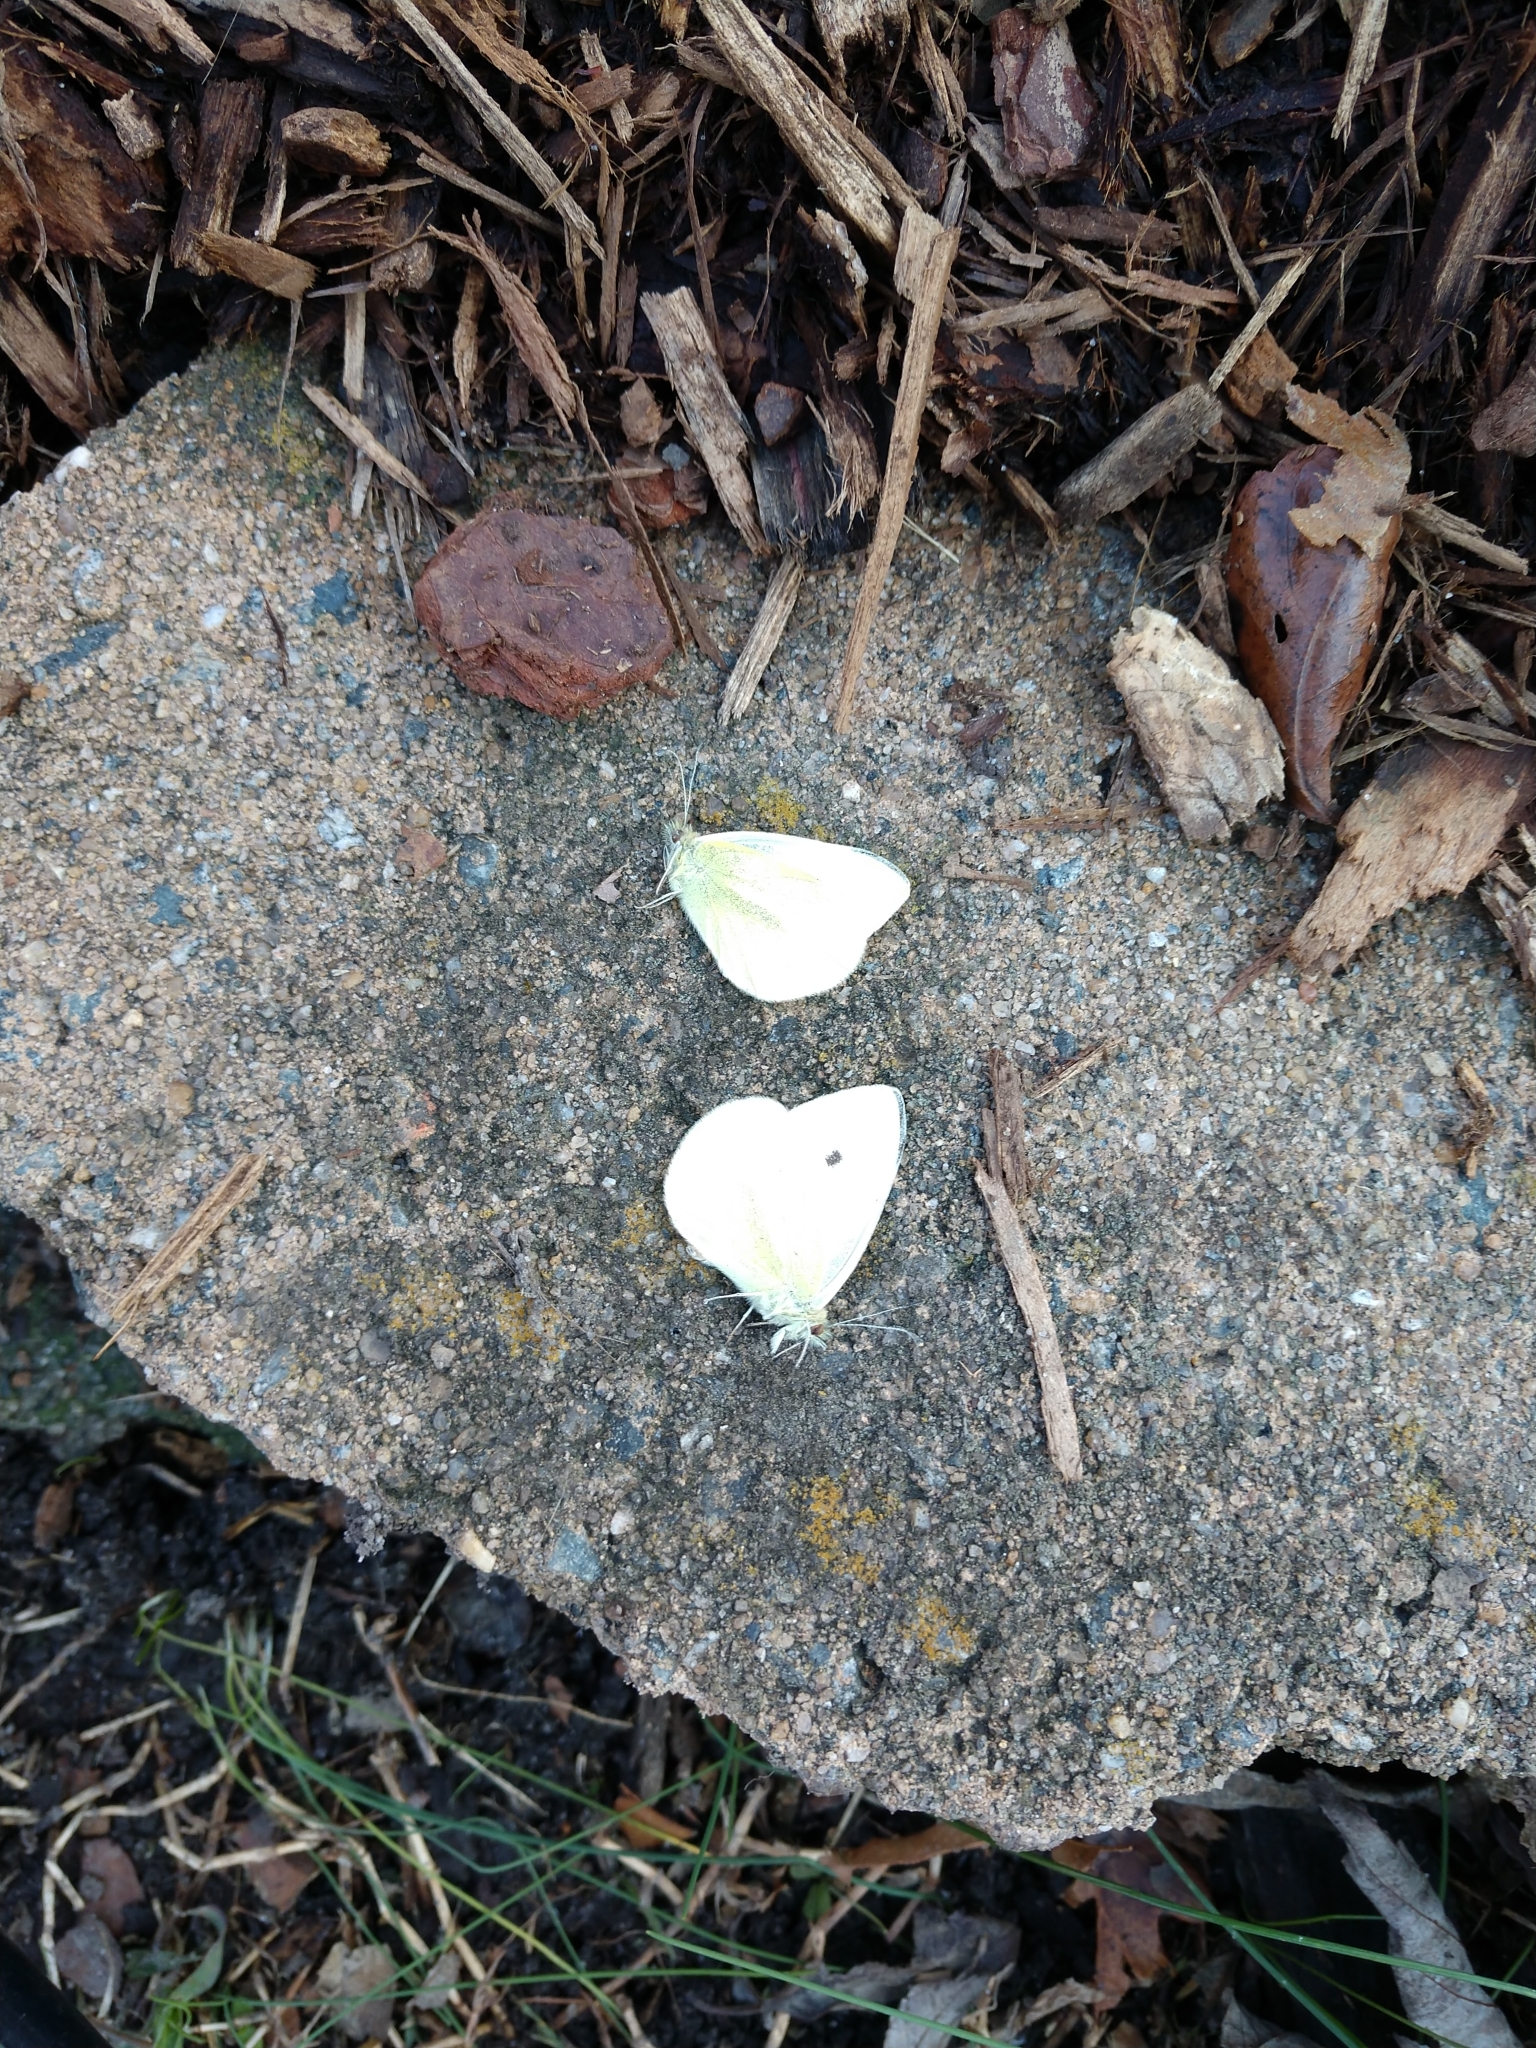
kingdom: Animalia
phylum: Arthropoda
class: Insecta
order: Lepidoptera
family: Pieridae
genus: Pieris
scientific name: Pieris rapae
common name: Small white
